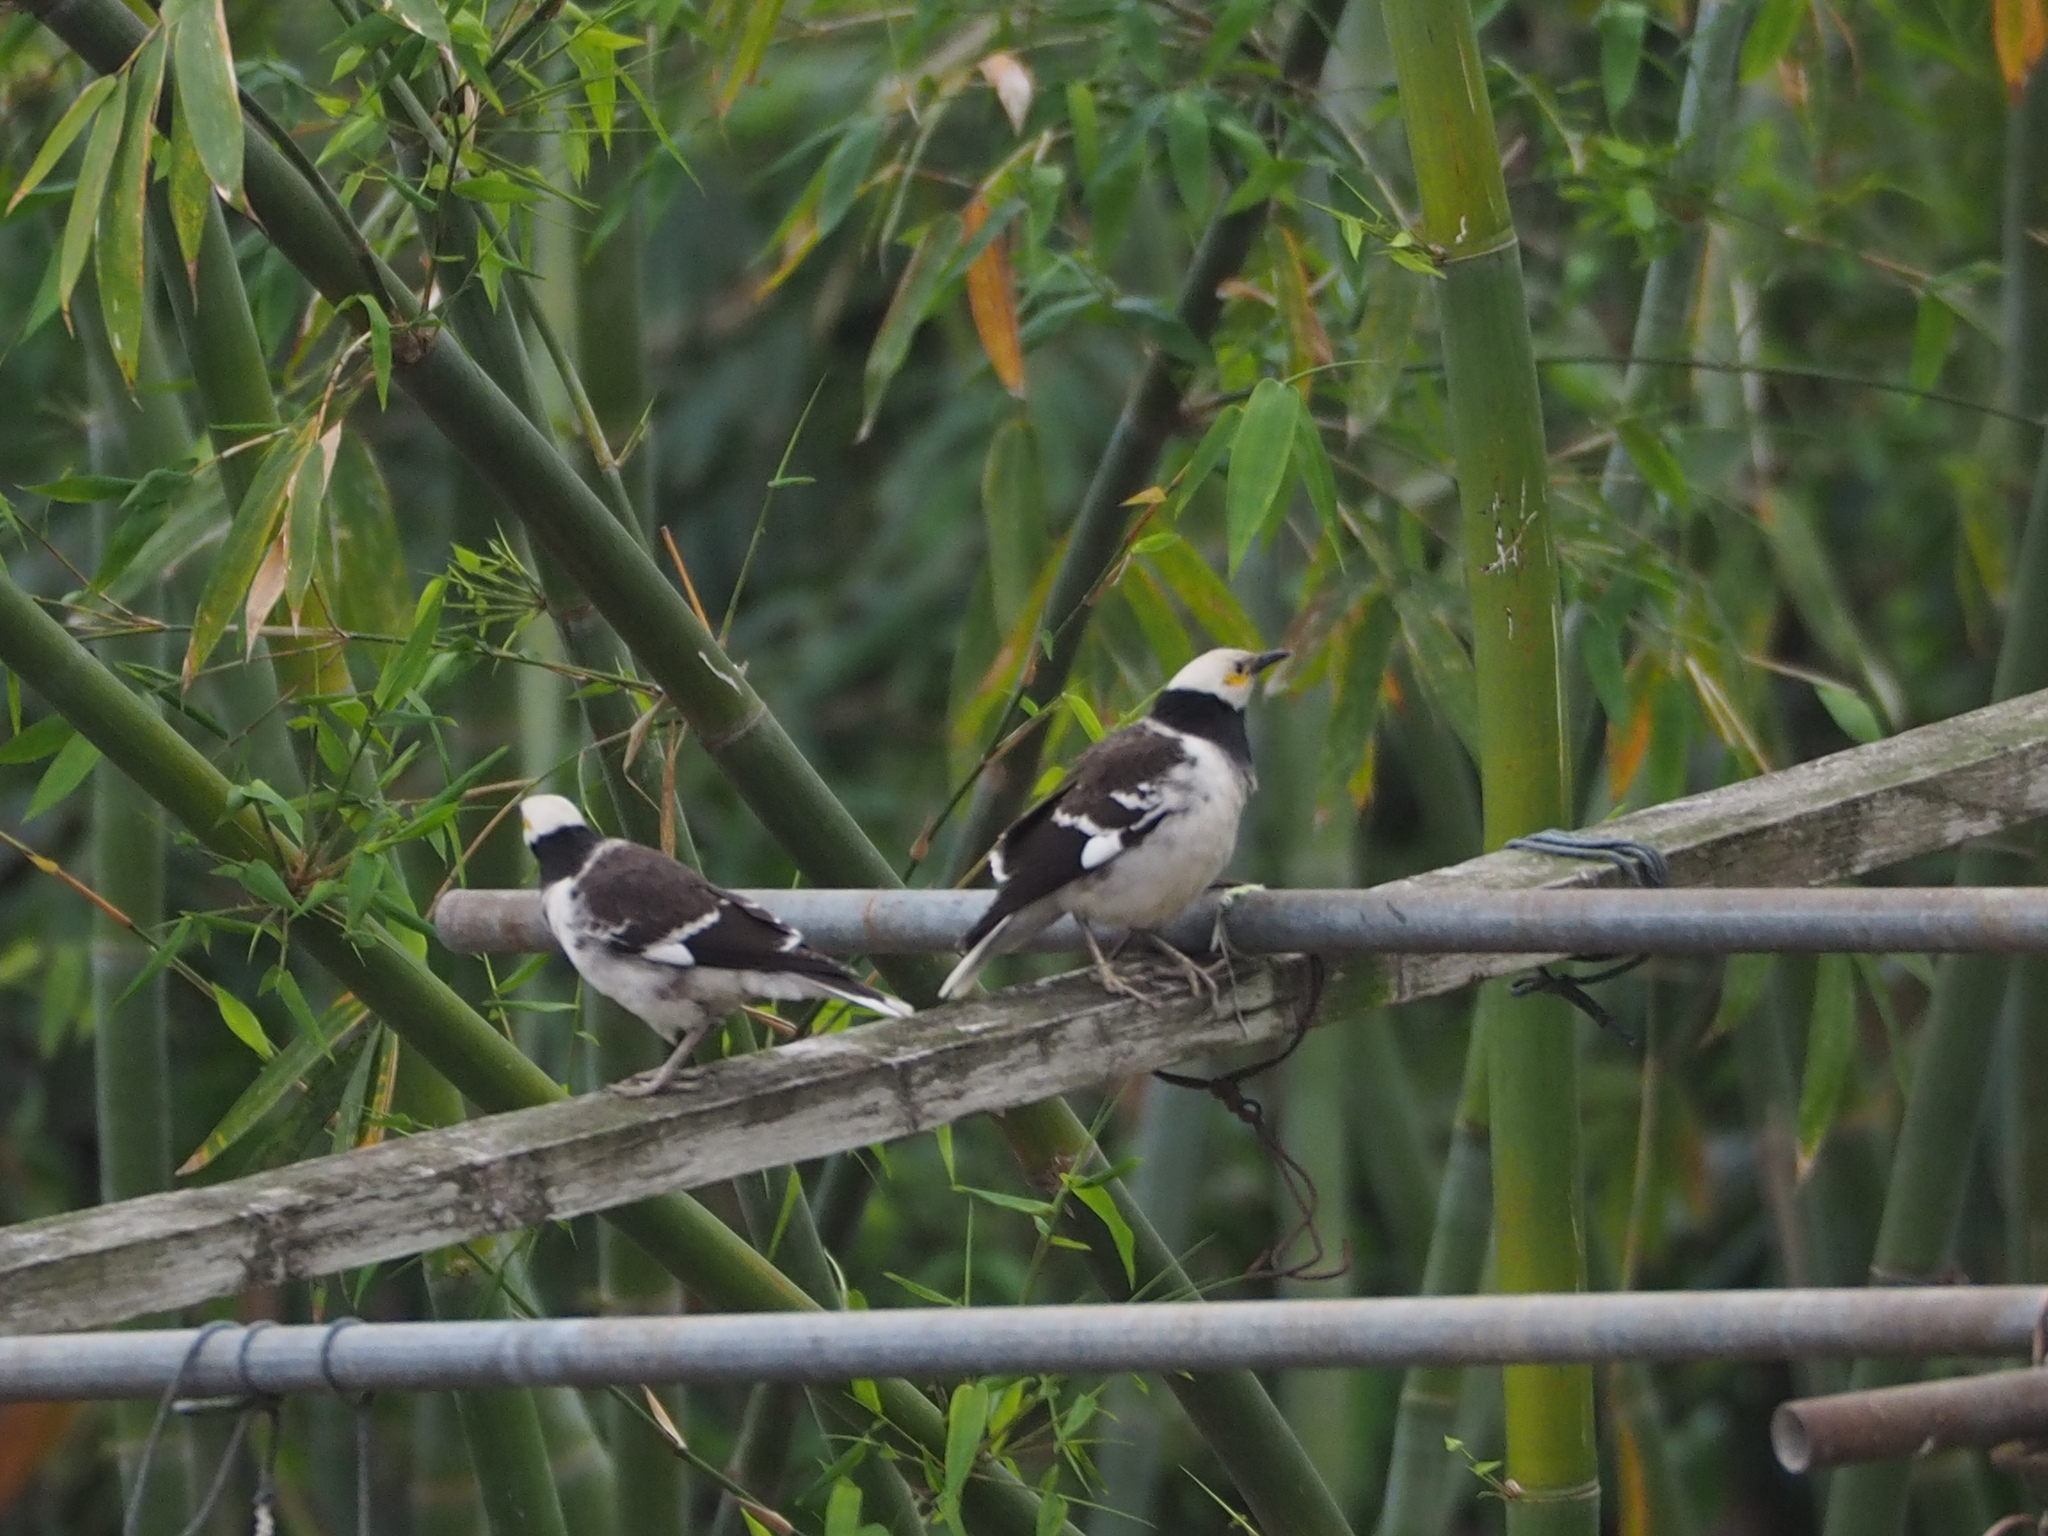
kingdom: Animalia
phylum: Chordata
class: Aves
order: Passeriformes
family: Sturnidae
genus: Gracupica
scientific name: Gracupica nigricollis
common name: Black-collared starling
